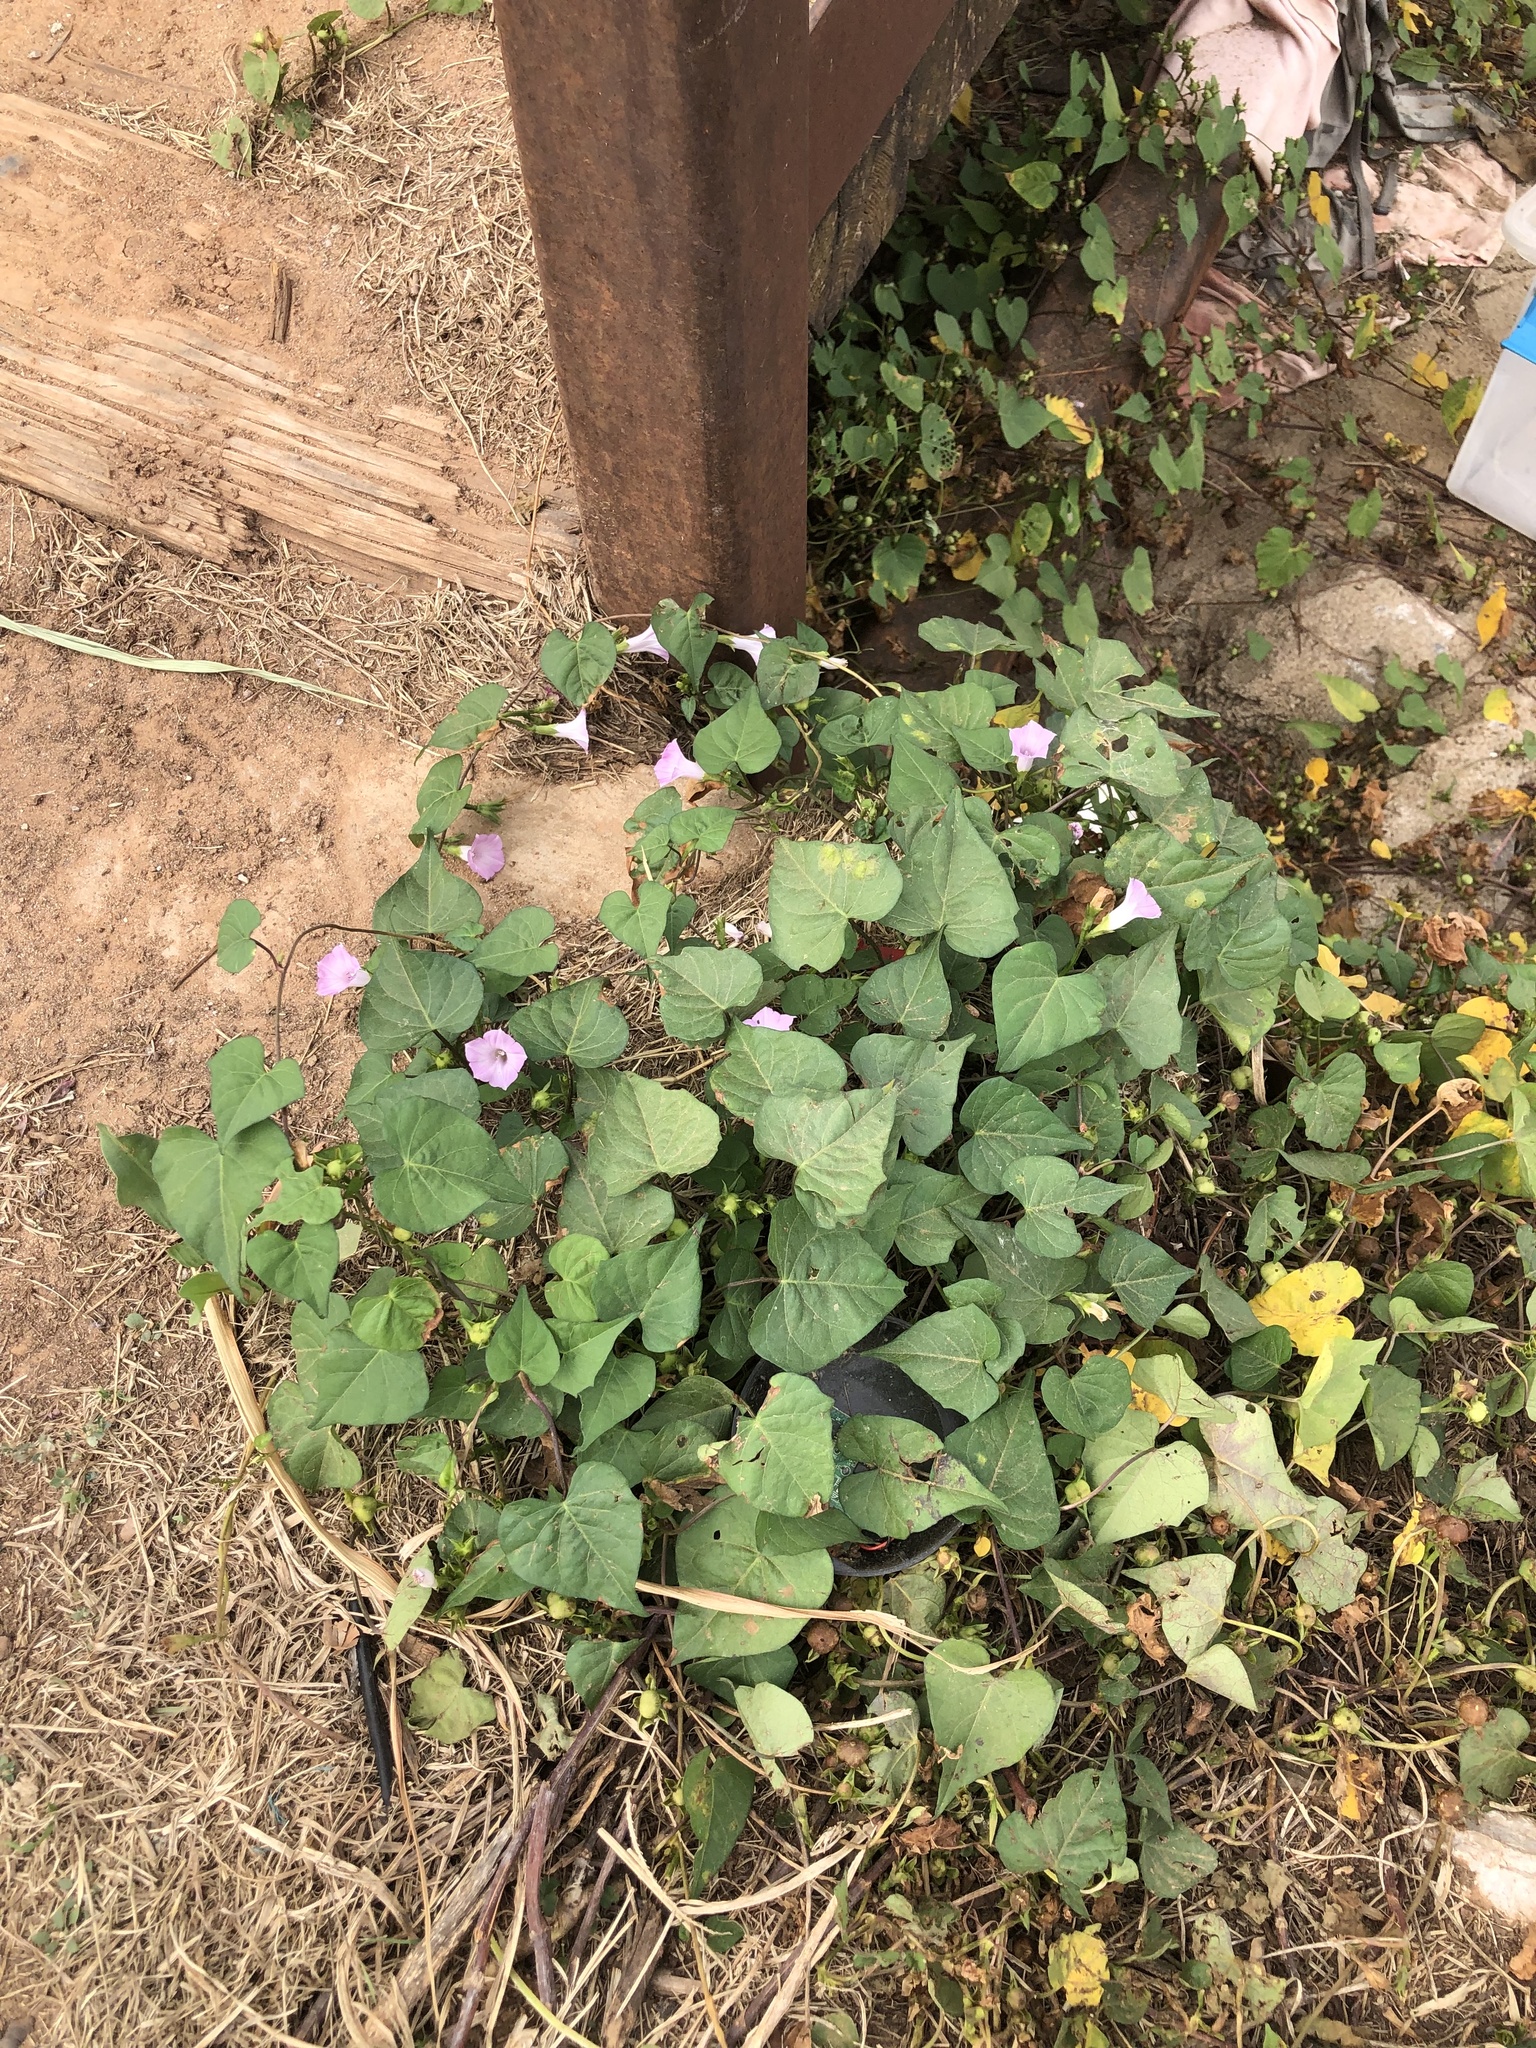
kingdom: Plantae
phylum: Tracheophyta
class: Magnoliopsida
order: Solanales
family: Convolvulaceae
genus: Ipomoea
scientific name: Ipomoea purpurea
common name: Common morning-glory
